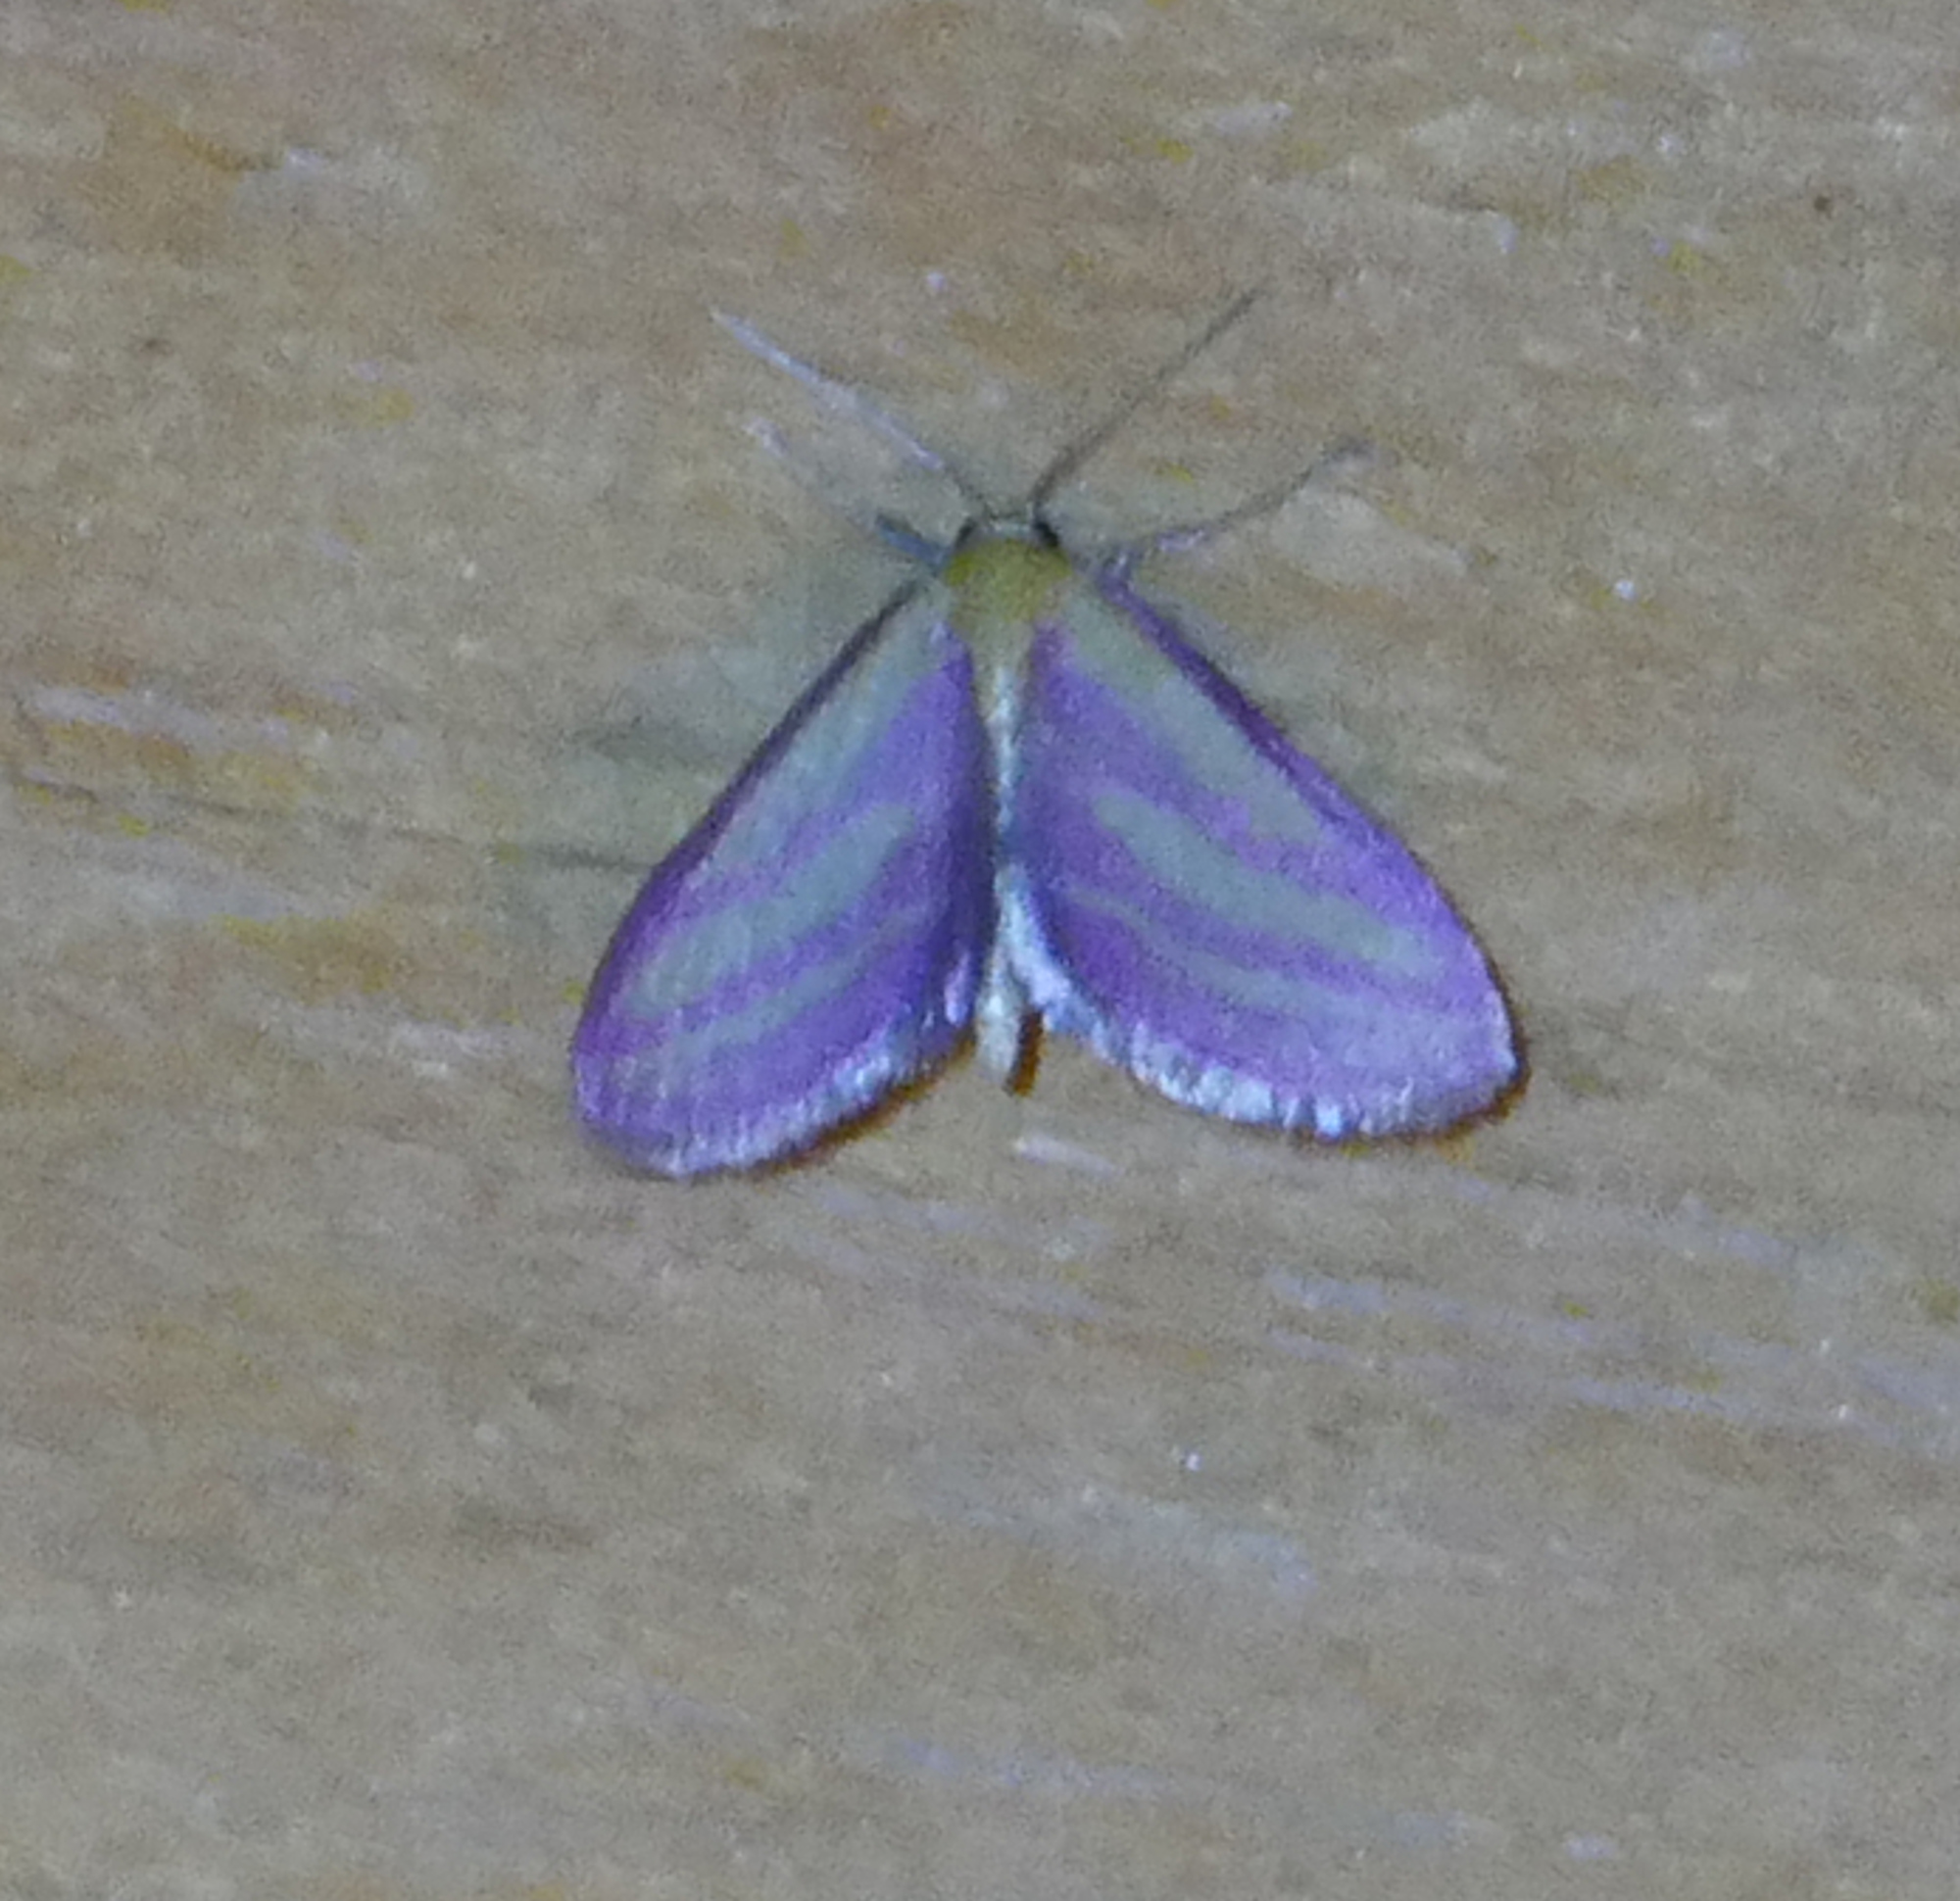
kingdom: Animalia
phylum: Arthropoda
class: Insecta
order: Lepidoptera
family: Geometridae
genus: Leptostales
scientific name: Leptostales laevitaria
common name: Raspberry wave moth
